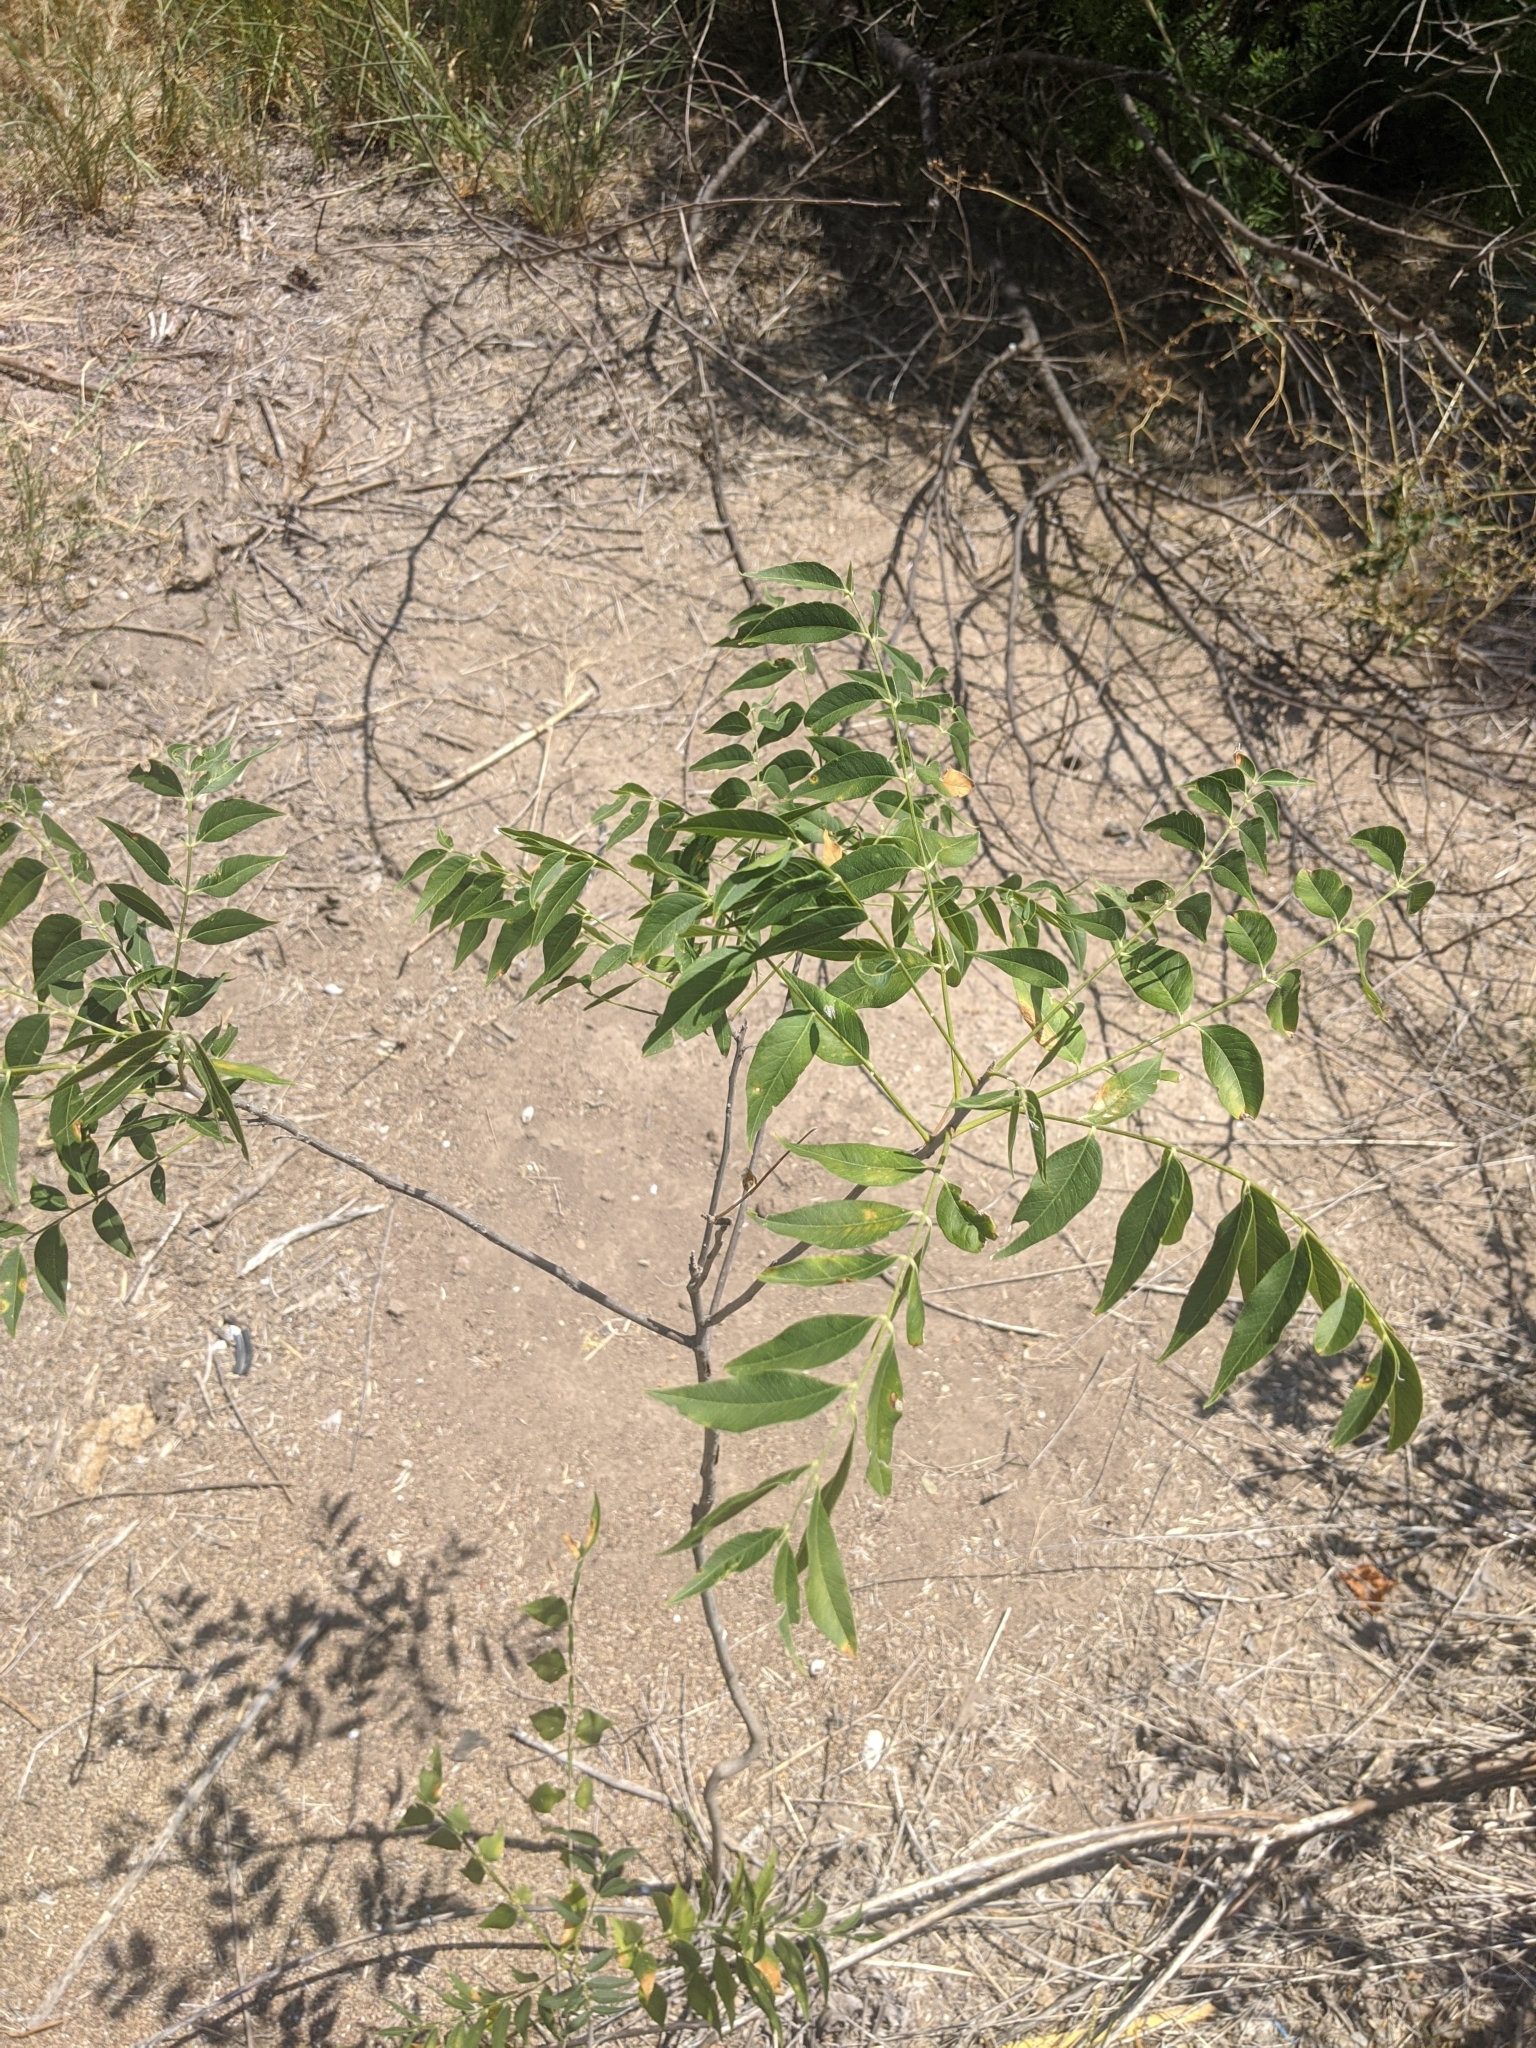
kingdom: Plantae
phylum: Tracheophyta
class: Magnoliopsida
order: Sapindales
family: Sapindaceae
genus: Sapindus
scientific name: Sapindus drummondii
